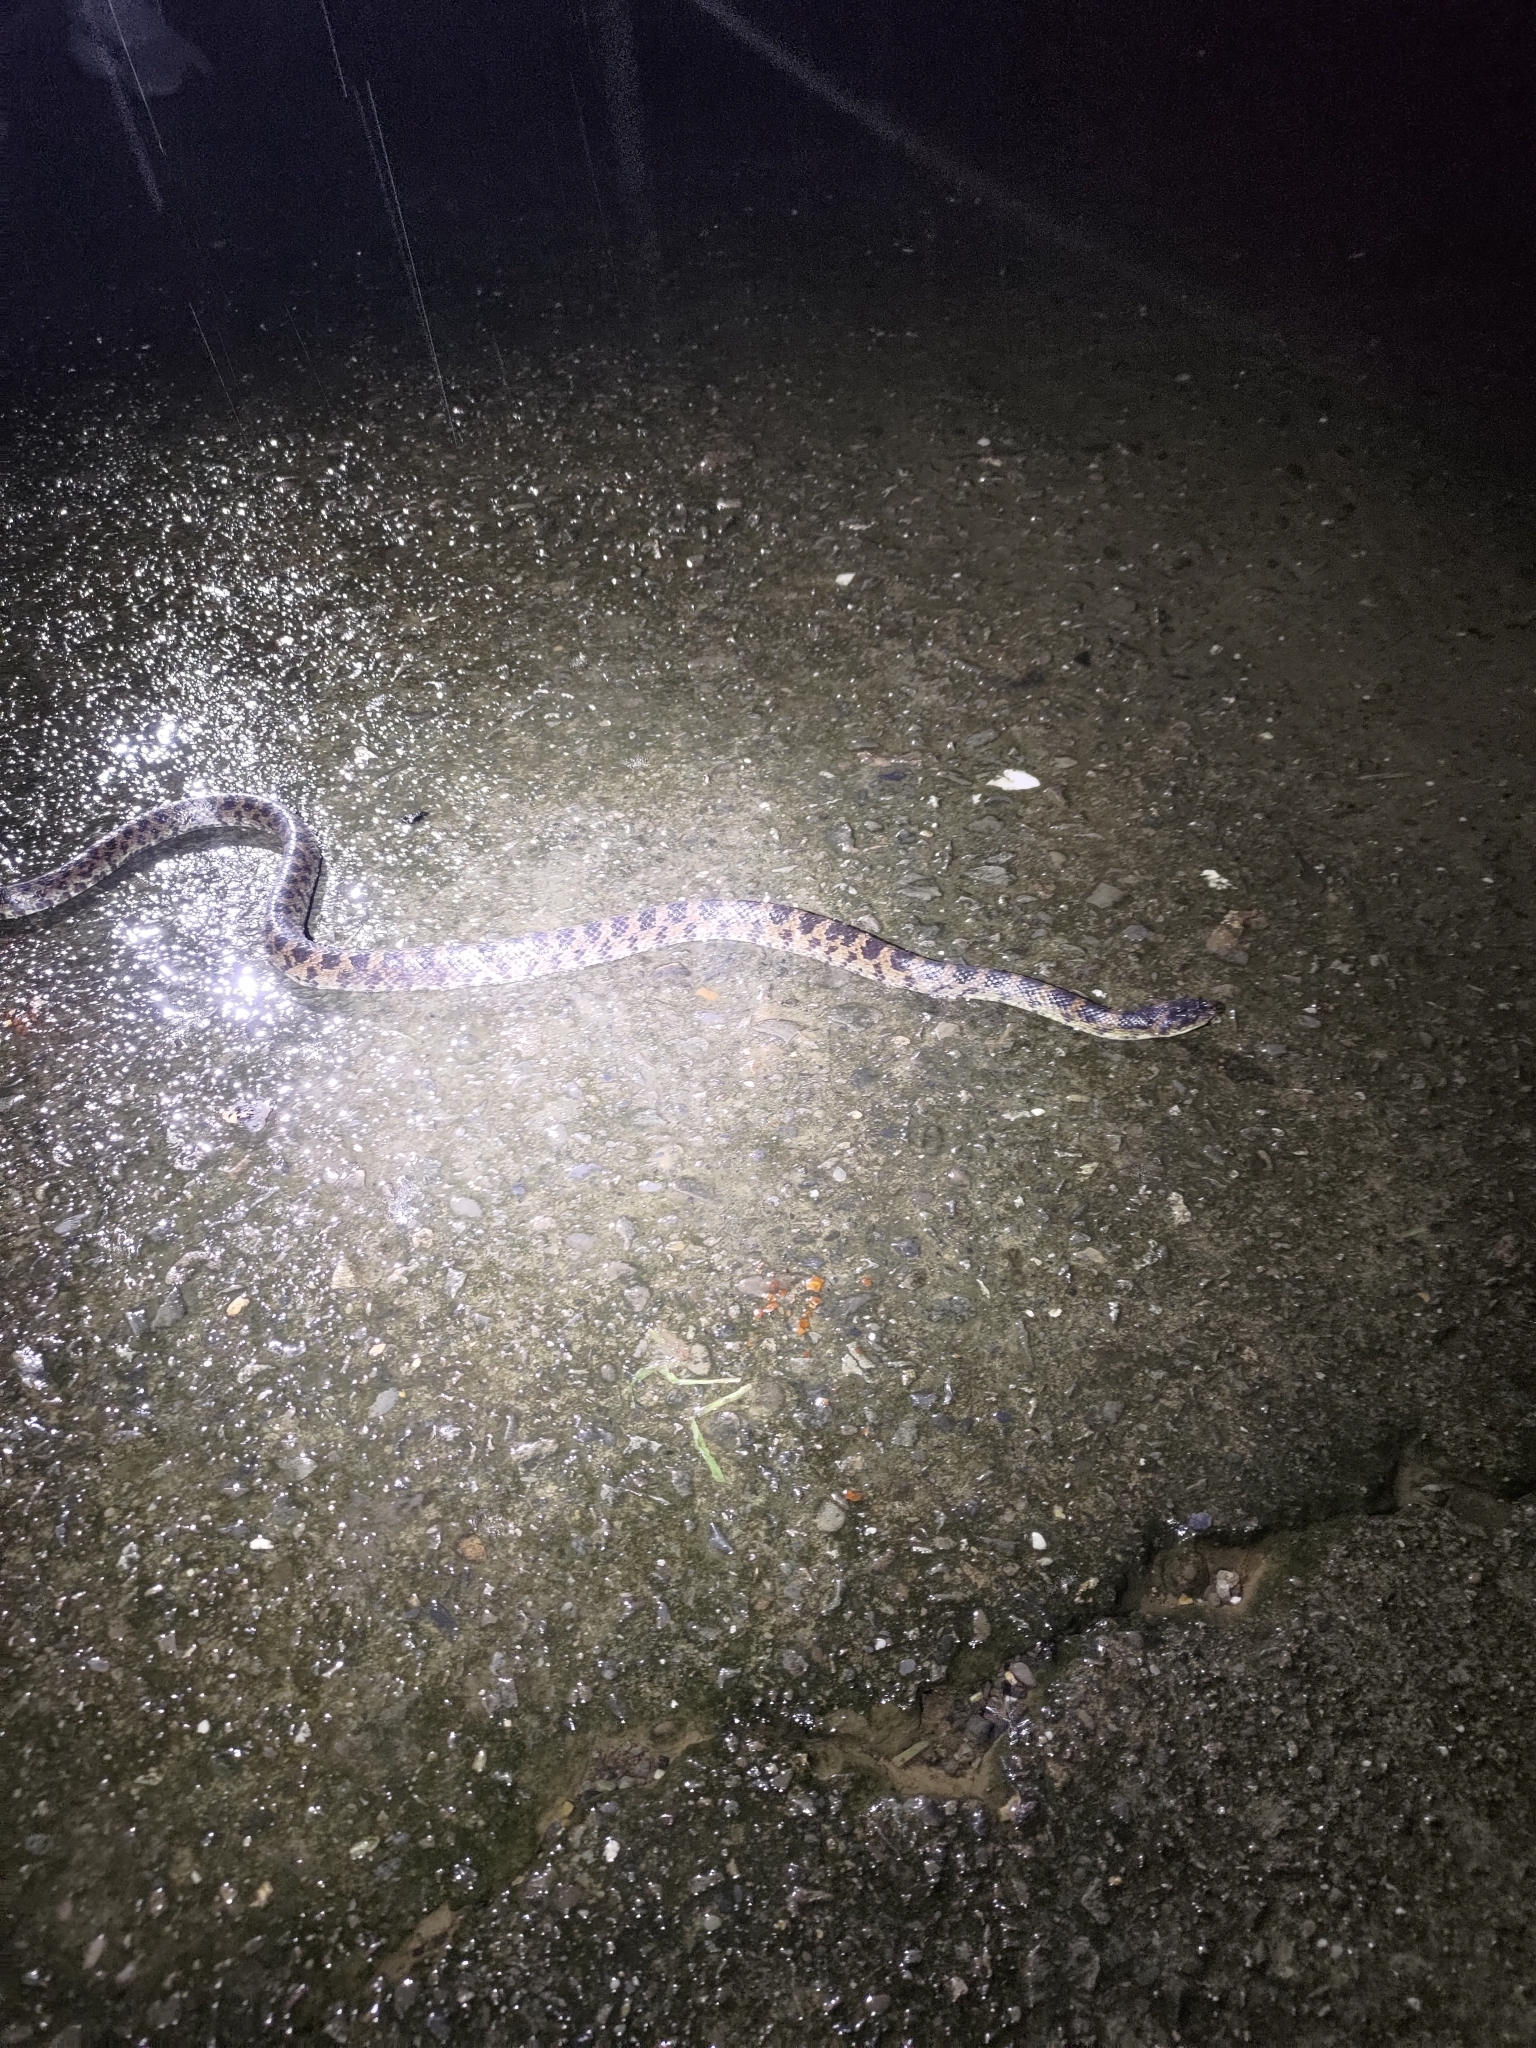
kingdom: Animalia
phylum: Chordata
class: Squamata
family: Colubridae
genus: Lycodon
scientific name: Lycodon rufozonatus
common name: Red-banded snake
